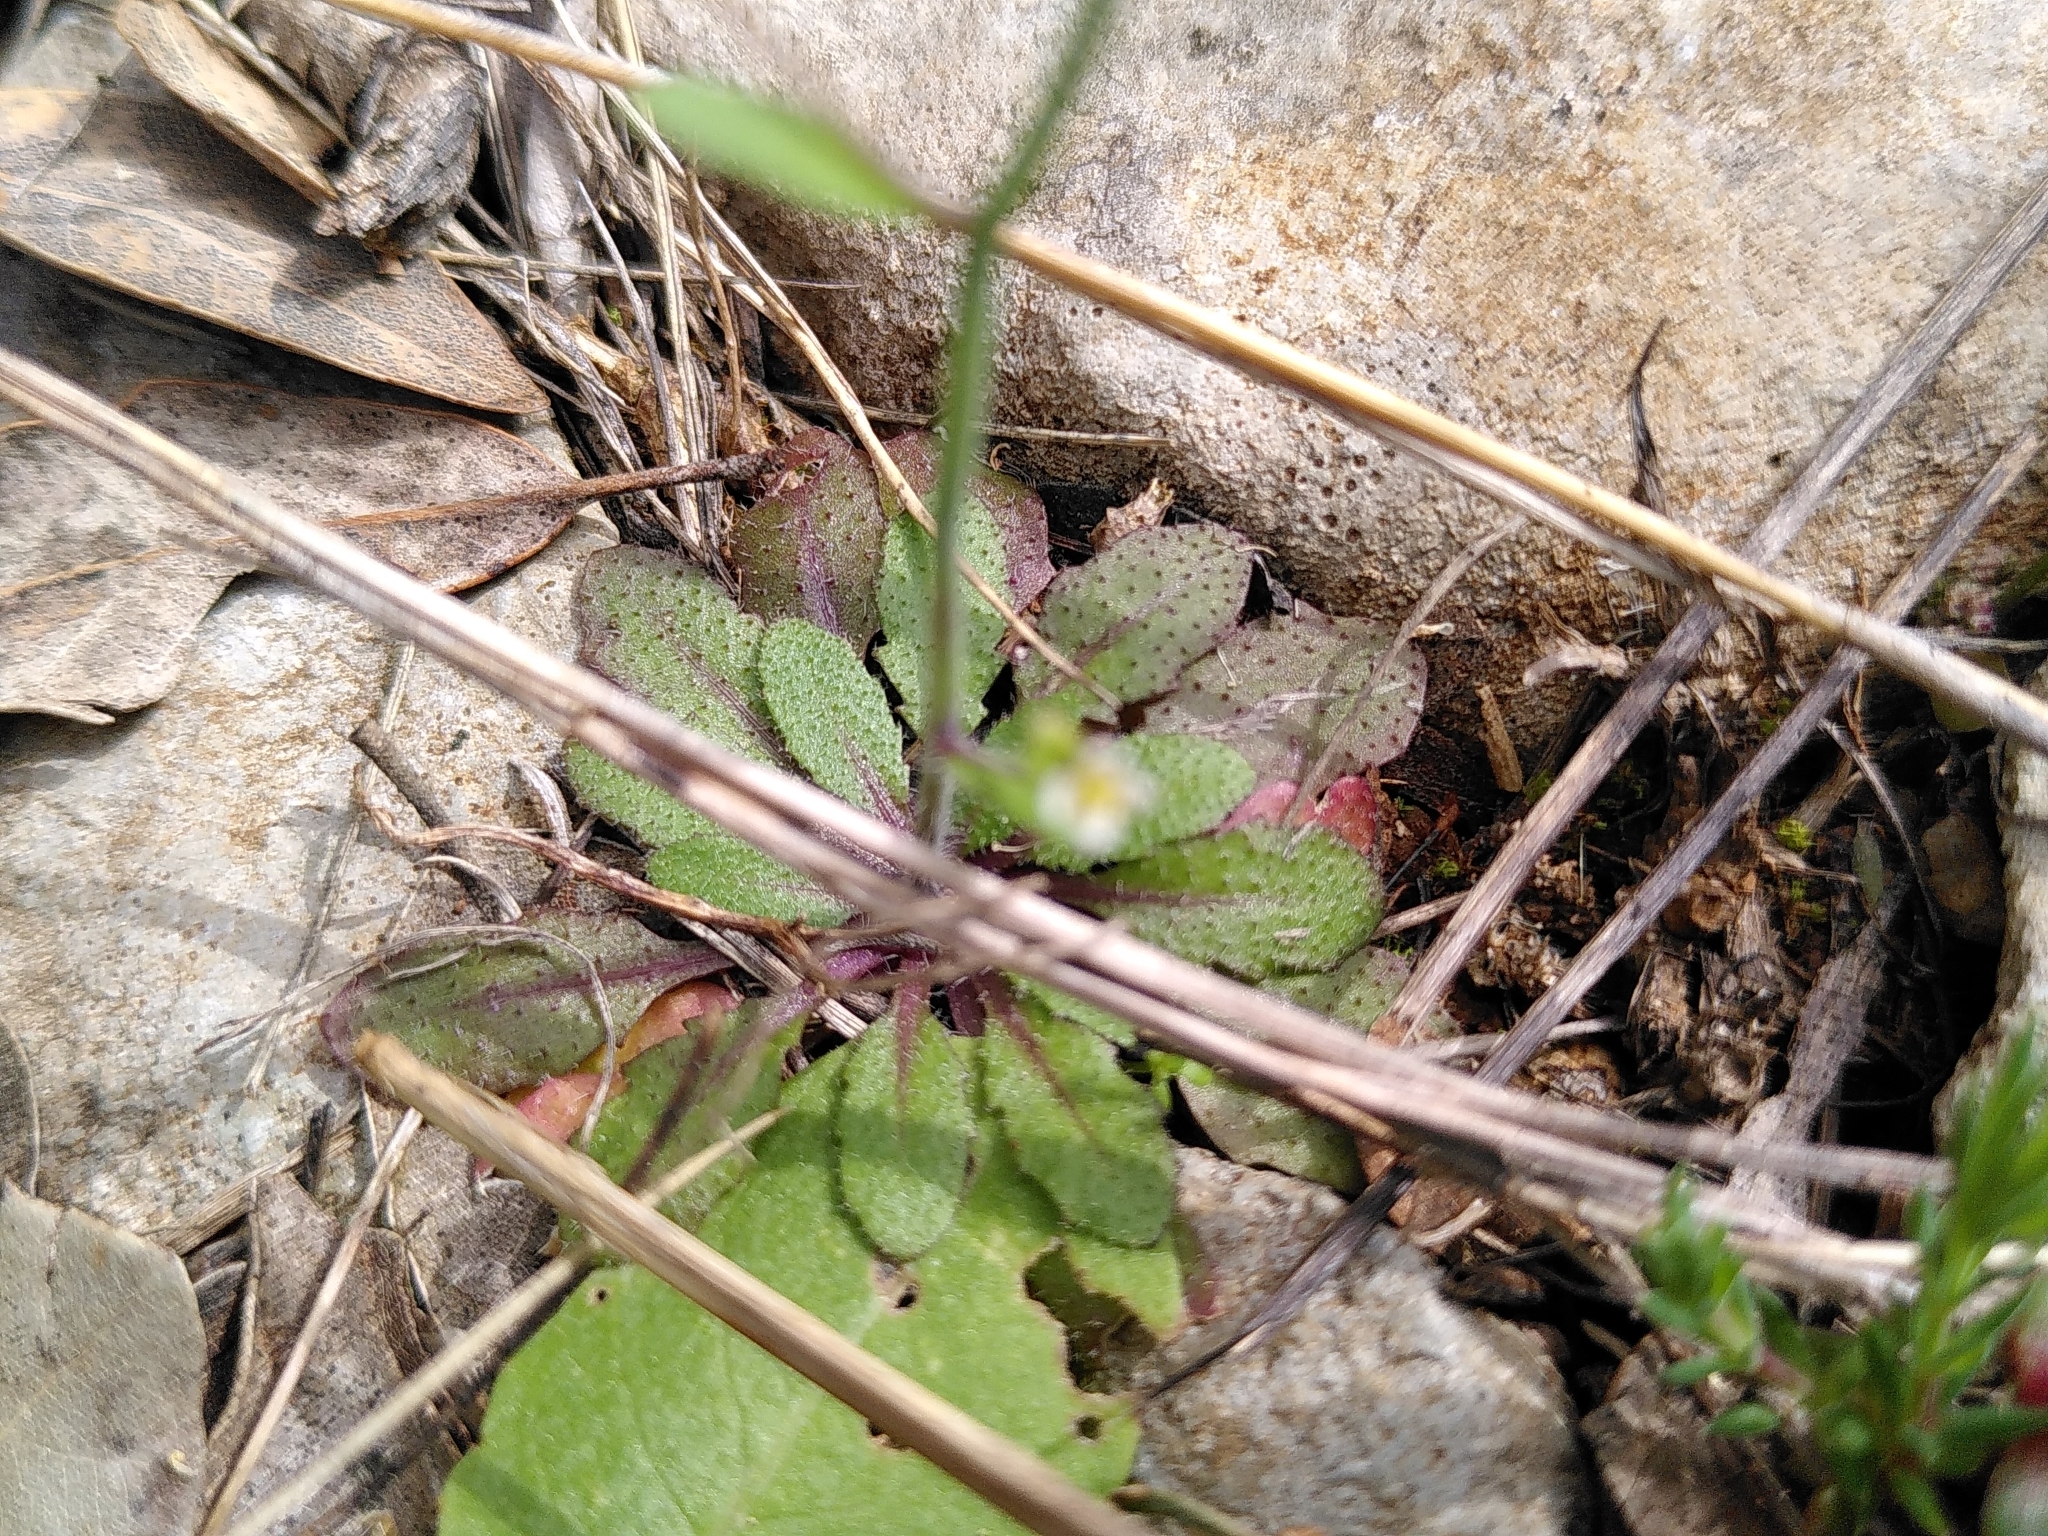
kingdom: Plantae
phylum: Tracheophyta
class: Magnoliopsida
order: Brassicales
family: Brassicaceae
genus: Arabidopsis
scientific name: Arabidopsis thaliana
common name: Thale cress
